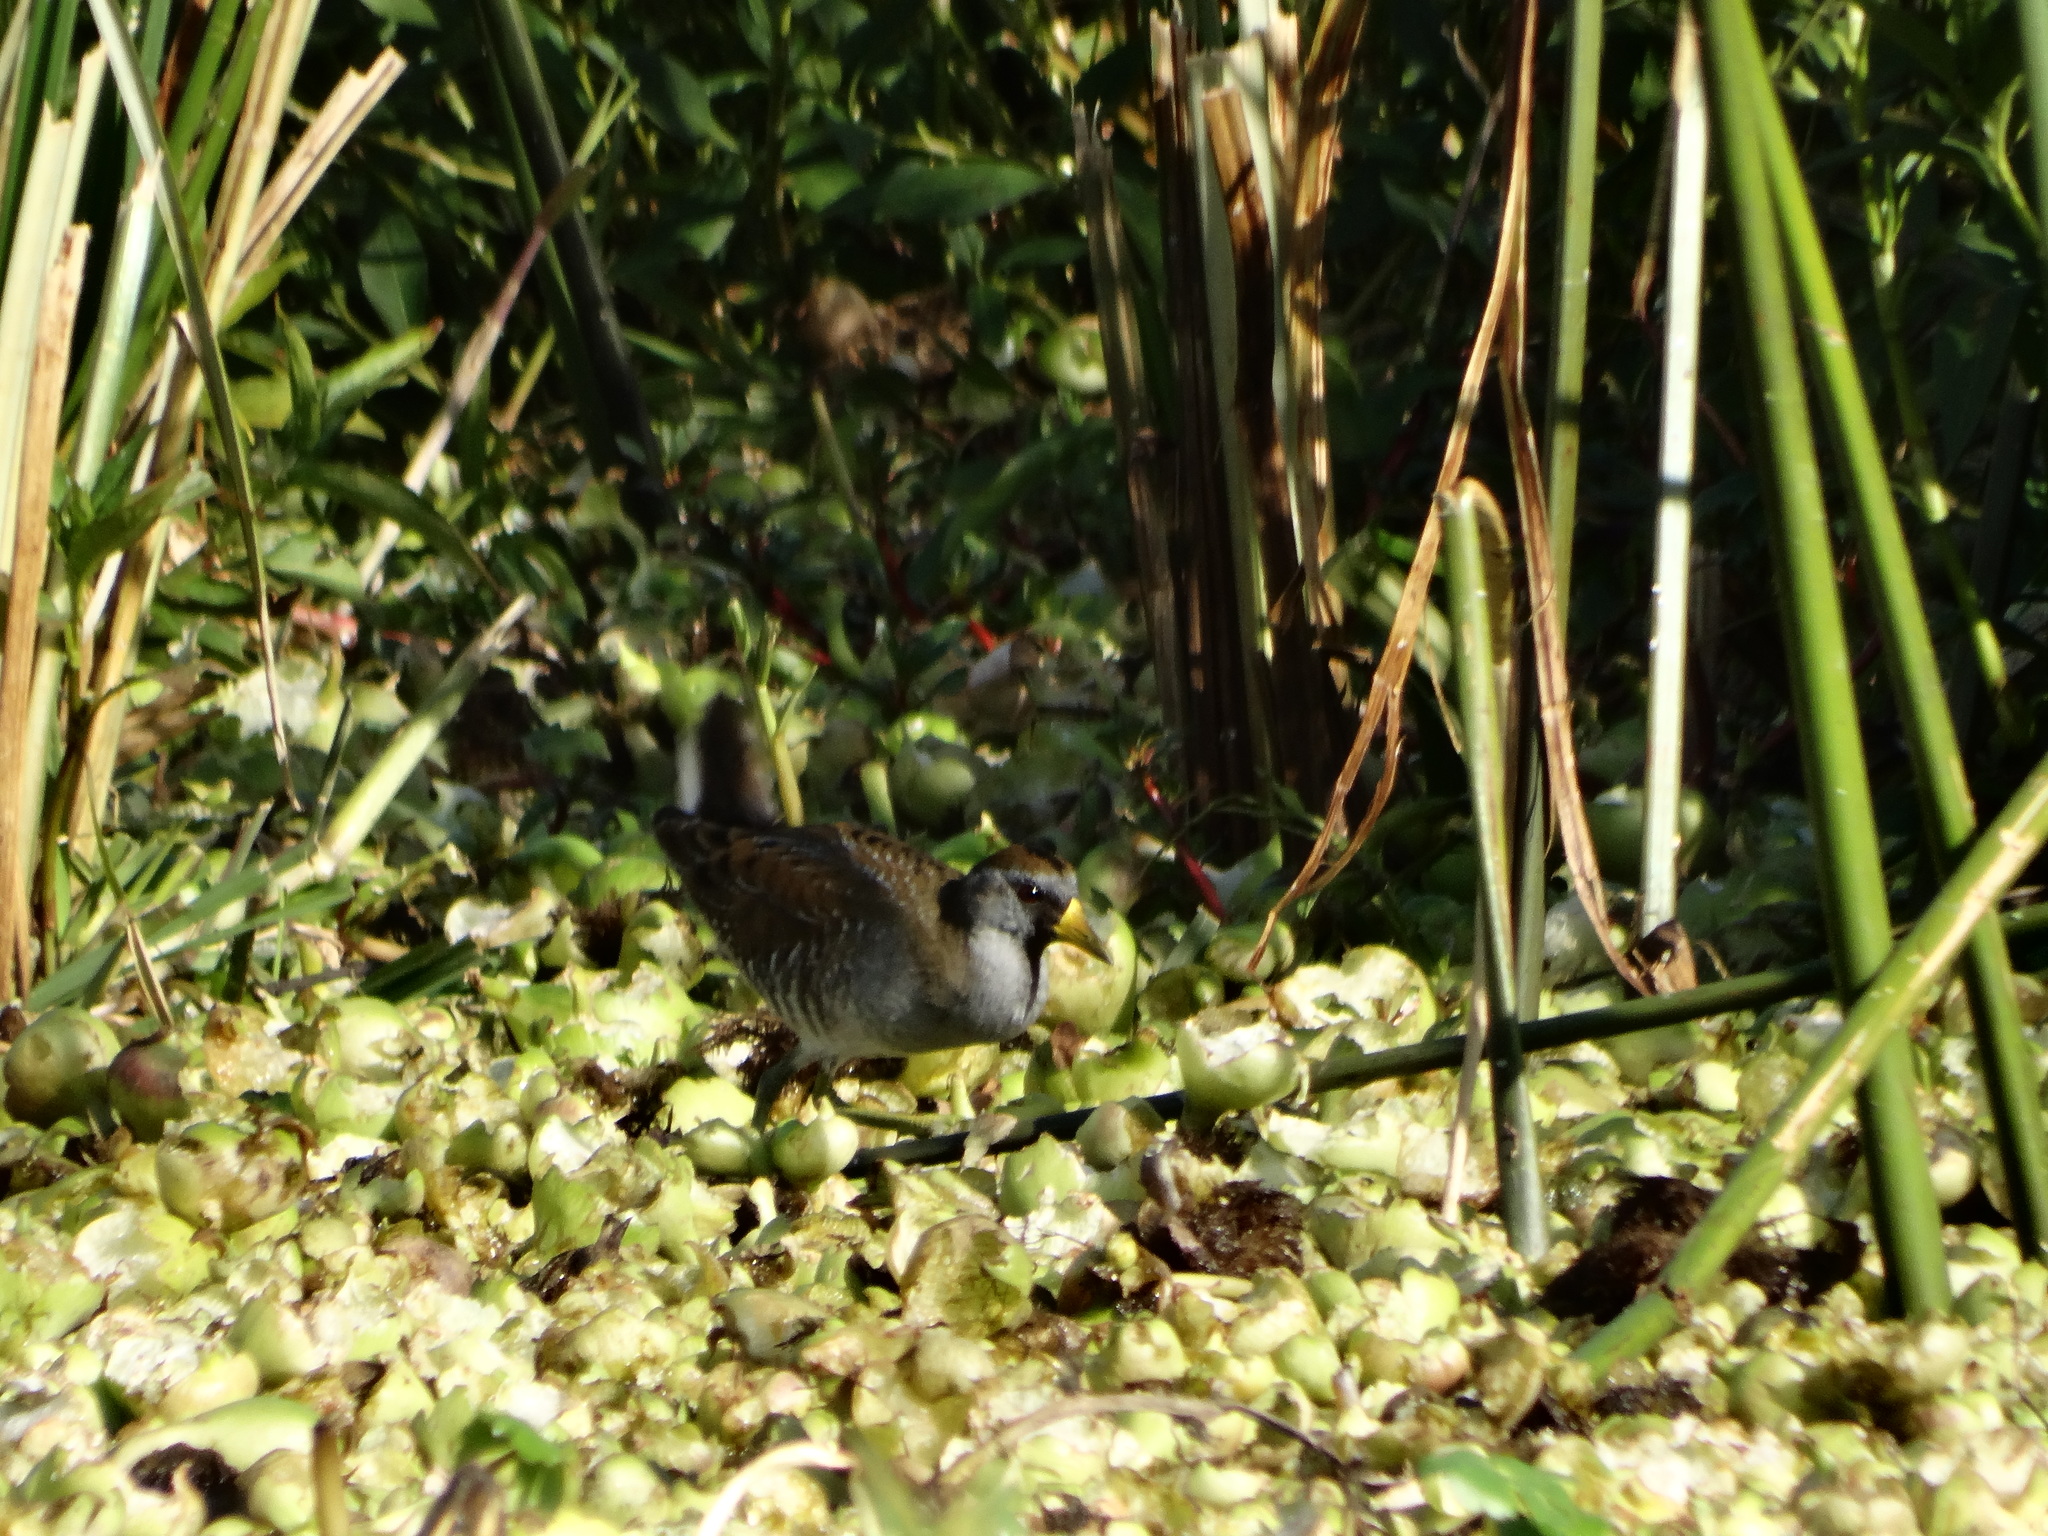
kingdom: Animalia
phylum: Chordata
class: Aves
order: Gruiformes
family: Rallidae
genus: Porzana
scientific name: Porzana carolina
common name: Sora
